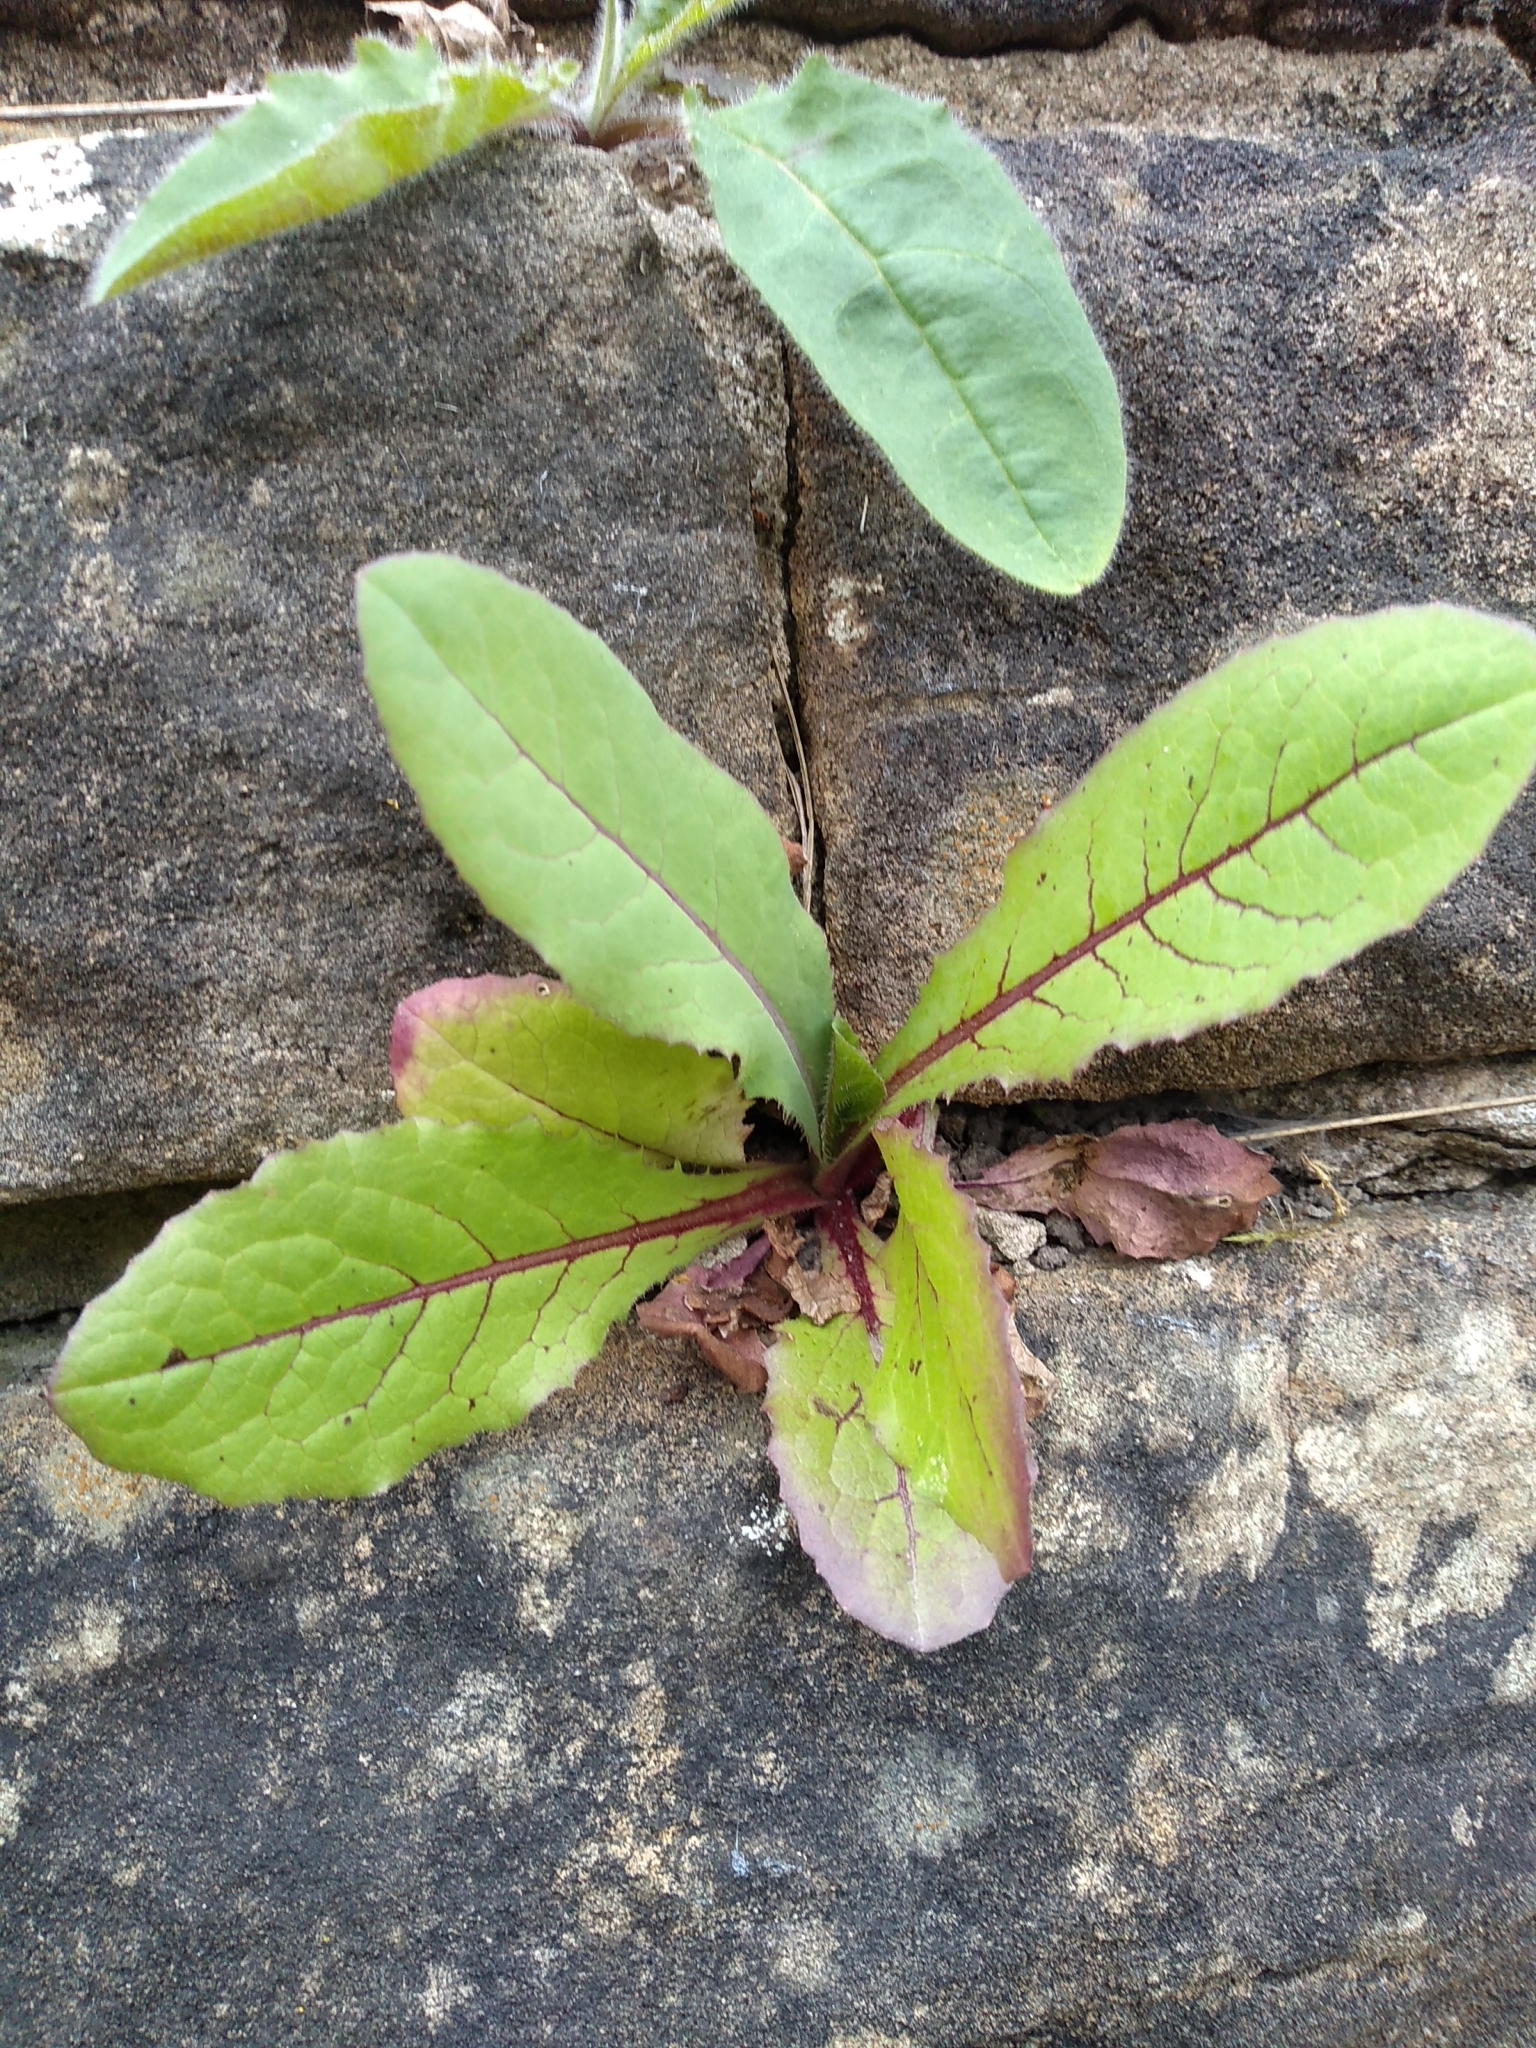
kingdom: Plantae
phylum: Tracheophyta
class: Magnoliopsida
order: Asterales
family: Asteraceae
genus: Lactuca
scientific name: Lactuca virosa
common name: Great lettuce
